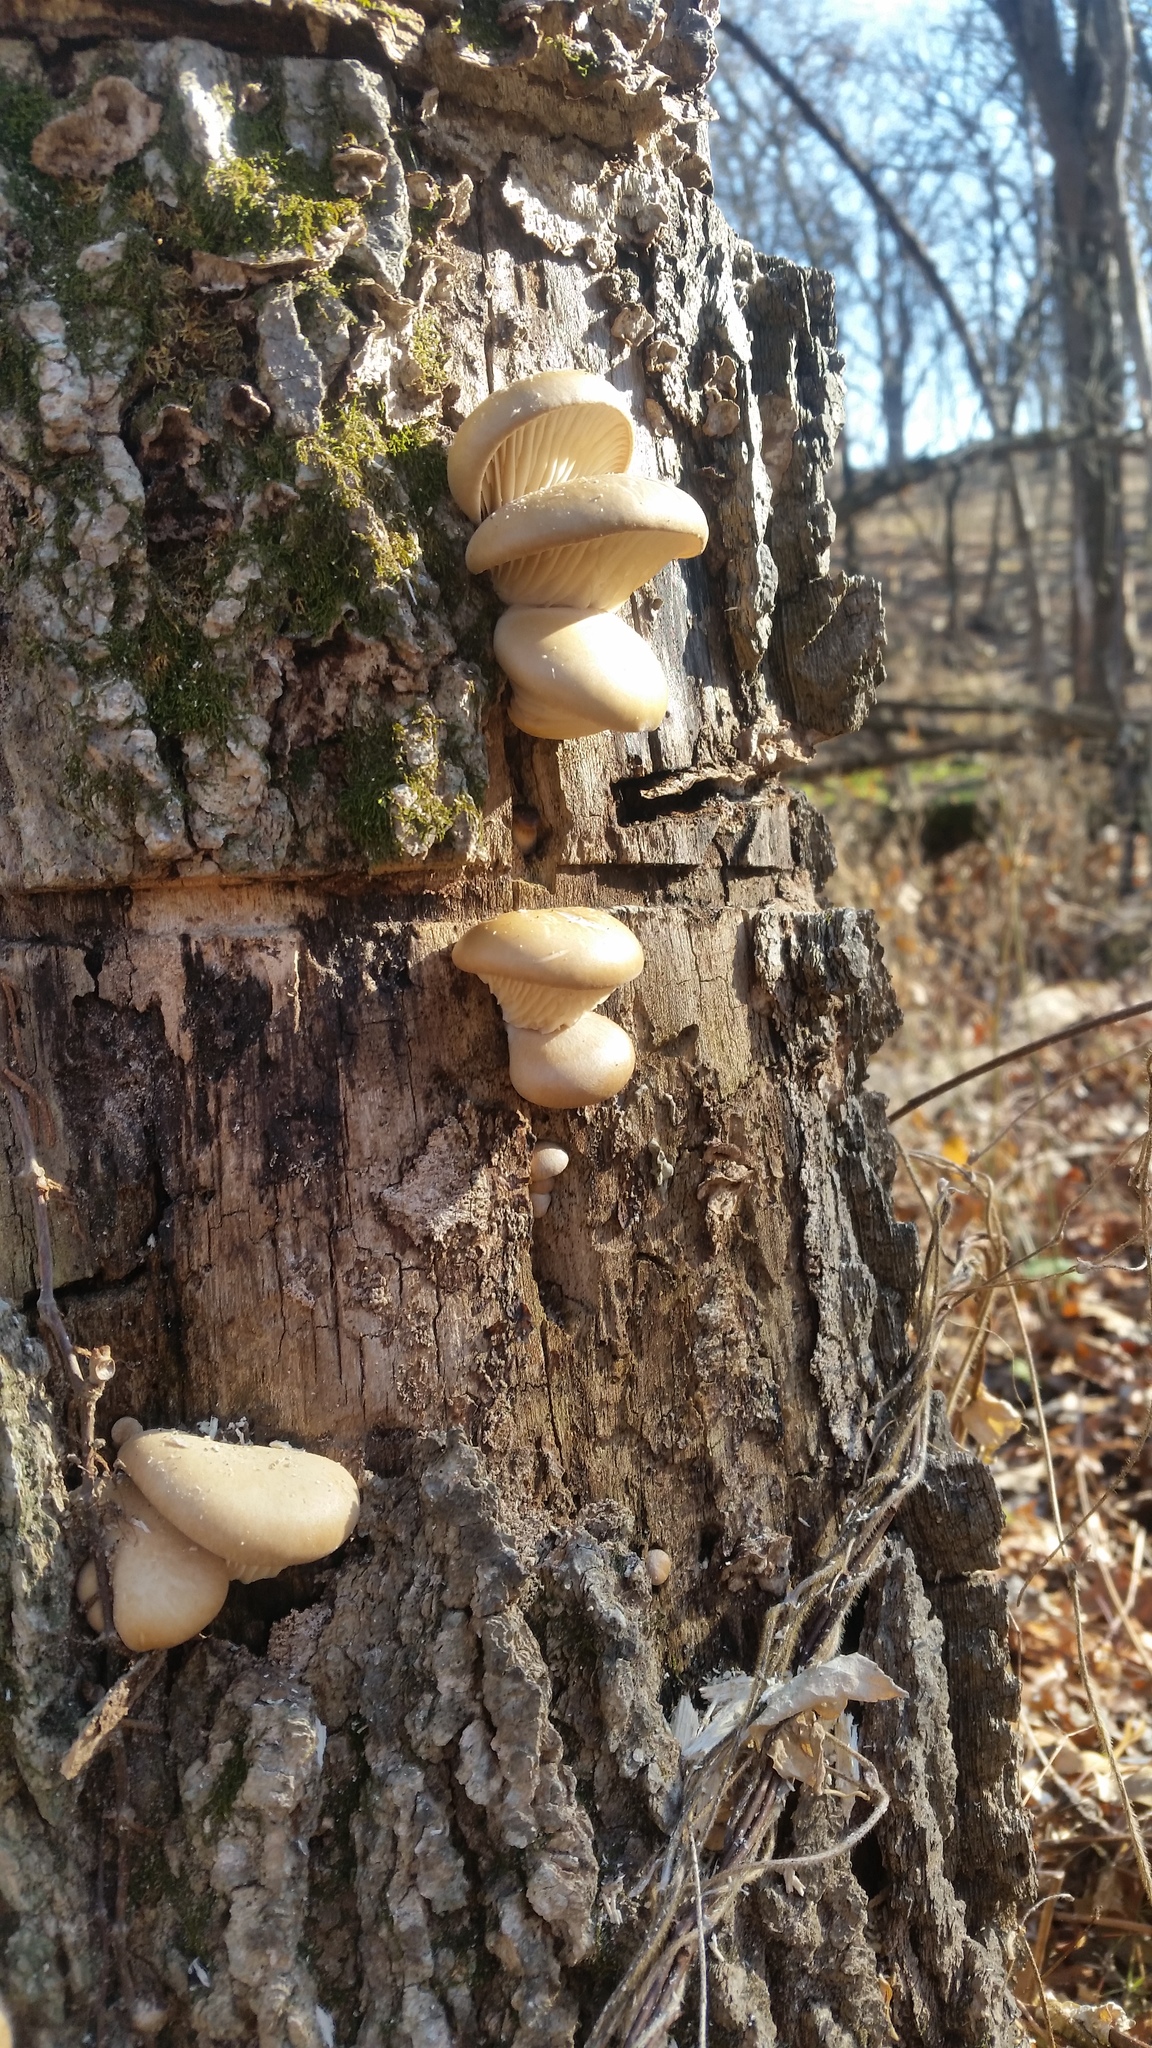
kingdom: Fungi
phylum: Basidiomycota
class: Agaricomycetes
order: Agaricales
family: Pleurotaceae
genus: Pleurotus
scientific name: Pleurotus ostreatus
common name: Oyster mushroom
